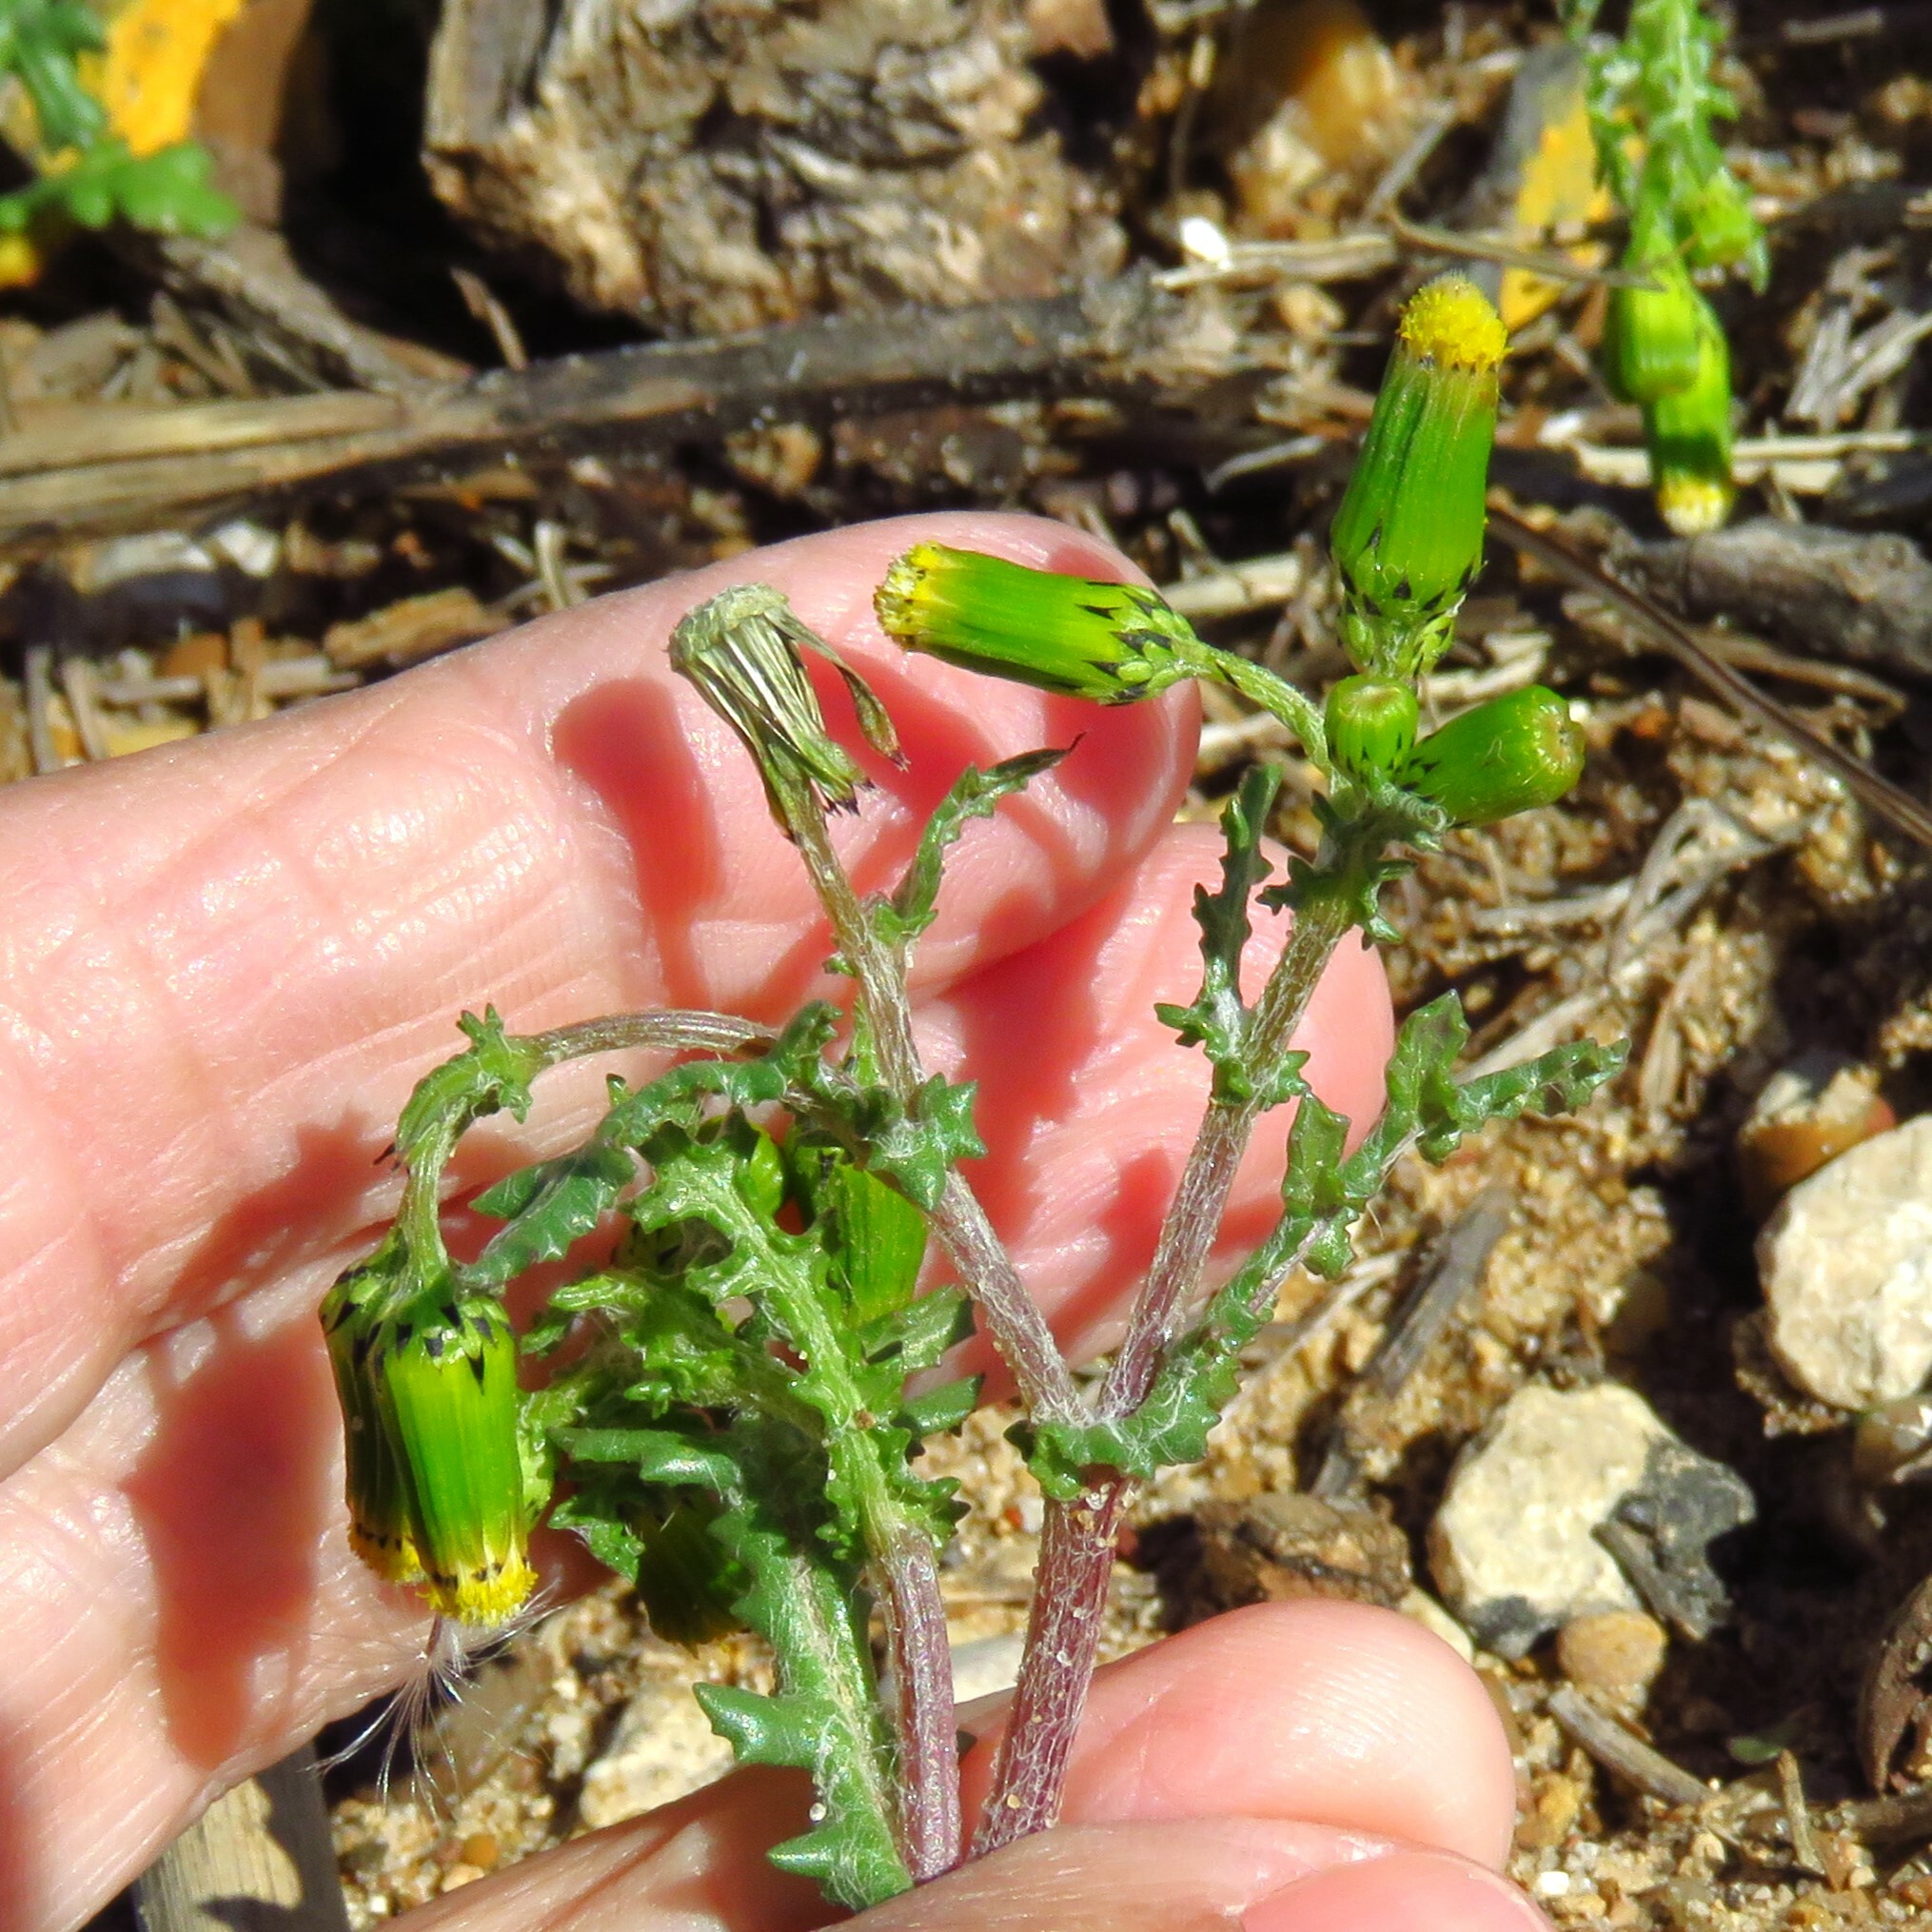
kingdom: Plantae
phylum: Tracheophyta
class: Magnoliopsida
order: Asterales
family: Asteraceae
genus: Senecio
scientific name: Senecio vulgaris
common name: Old-man-in-the-spring
